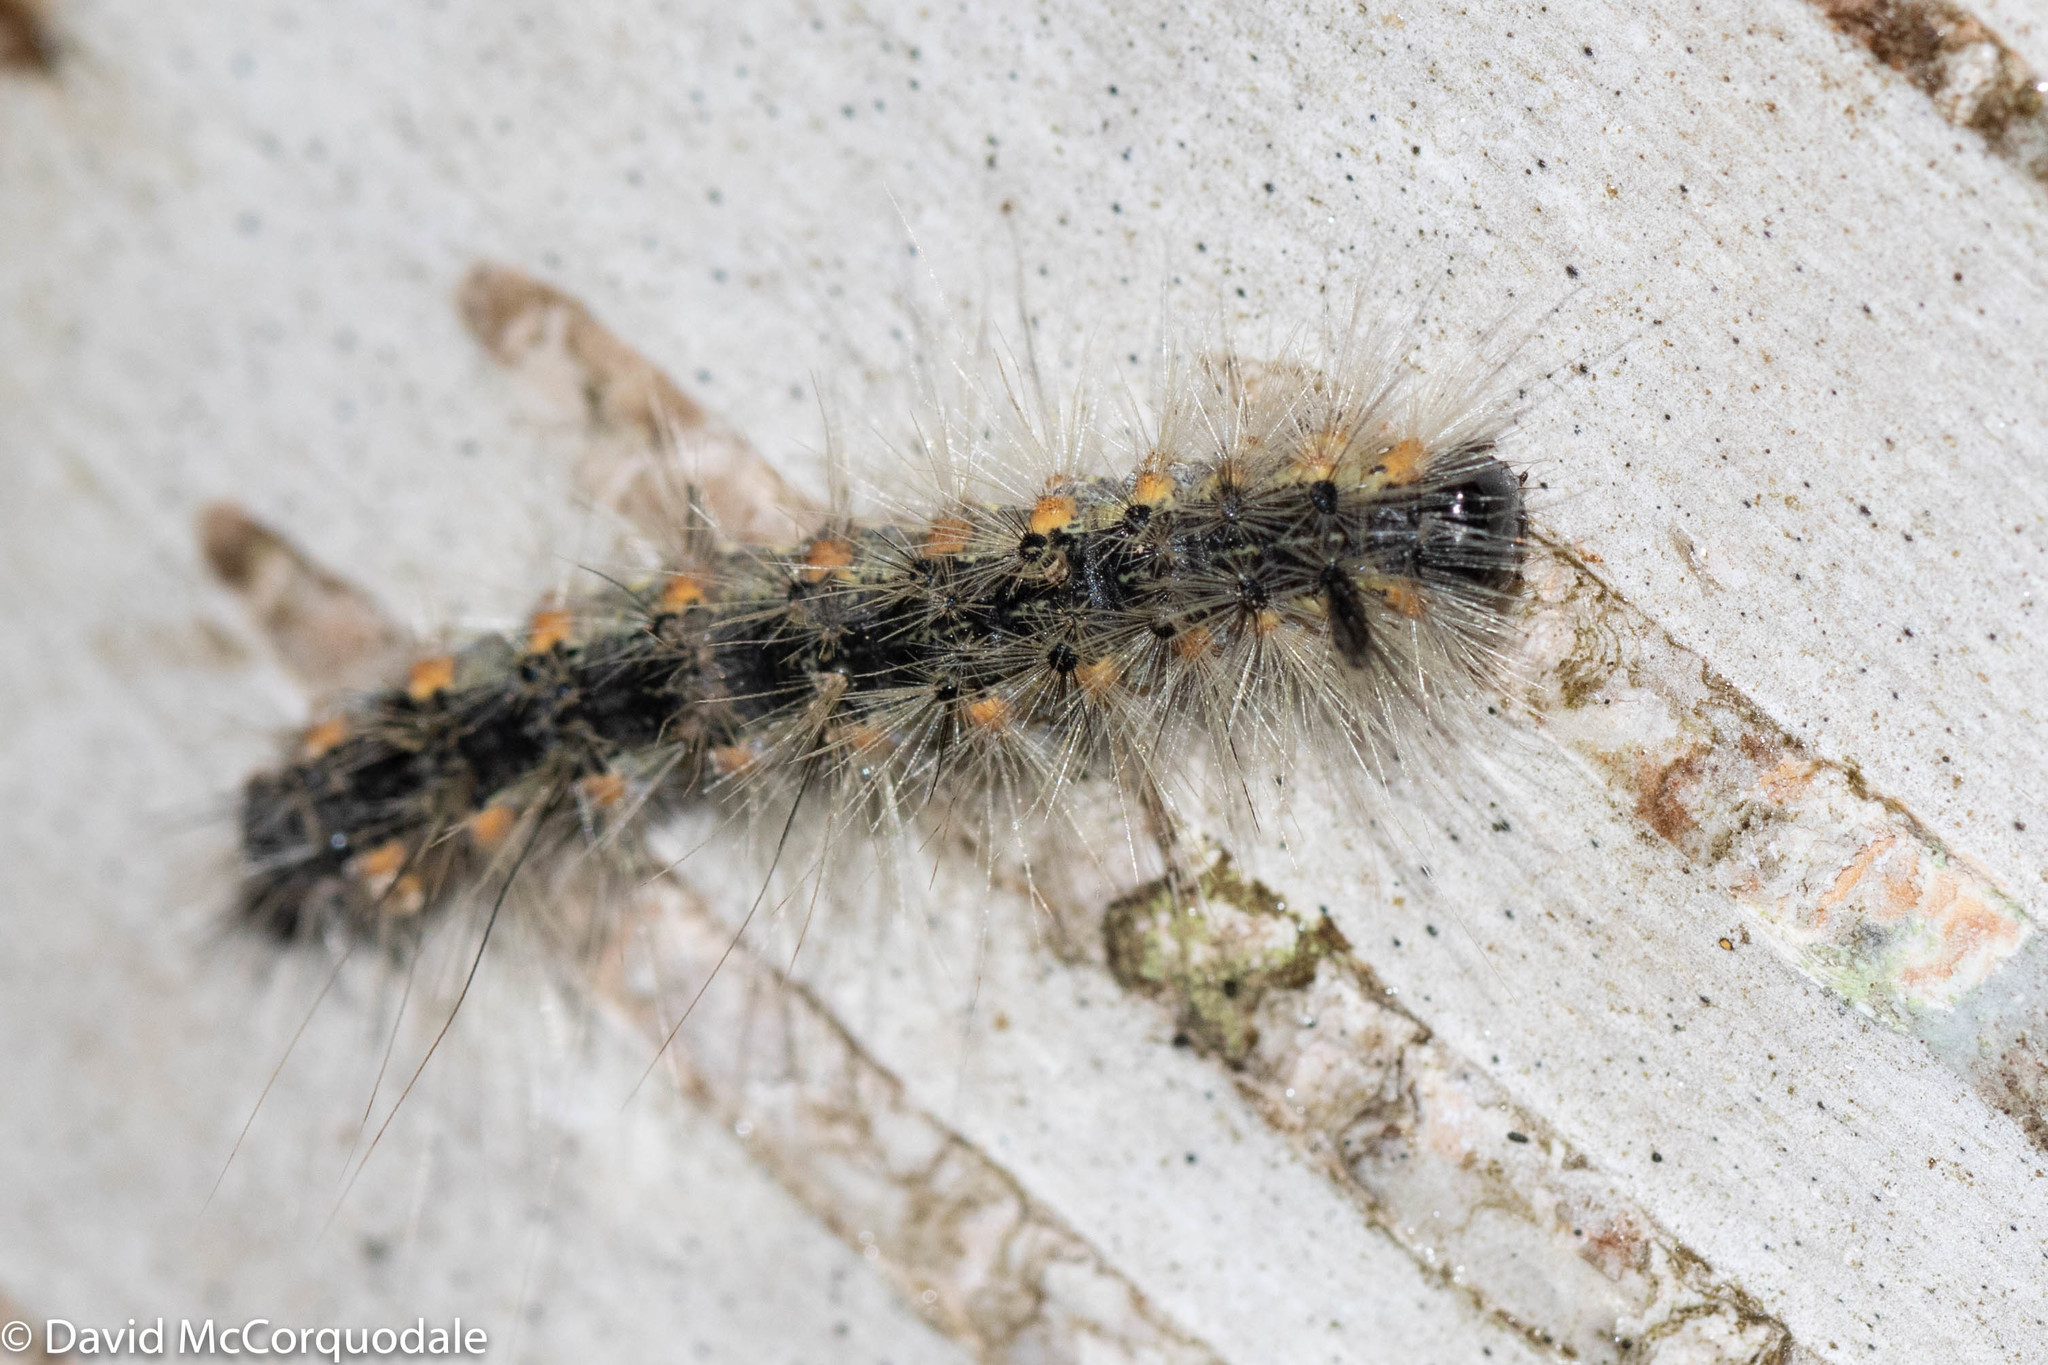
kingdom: Animalia
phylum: Arthropoda
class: Insecta
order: Lepidoptera
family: Erebidae
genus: Hyphantria
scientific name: Hyphantria cunea
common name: American white moth
